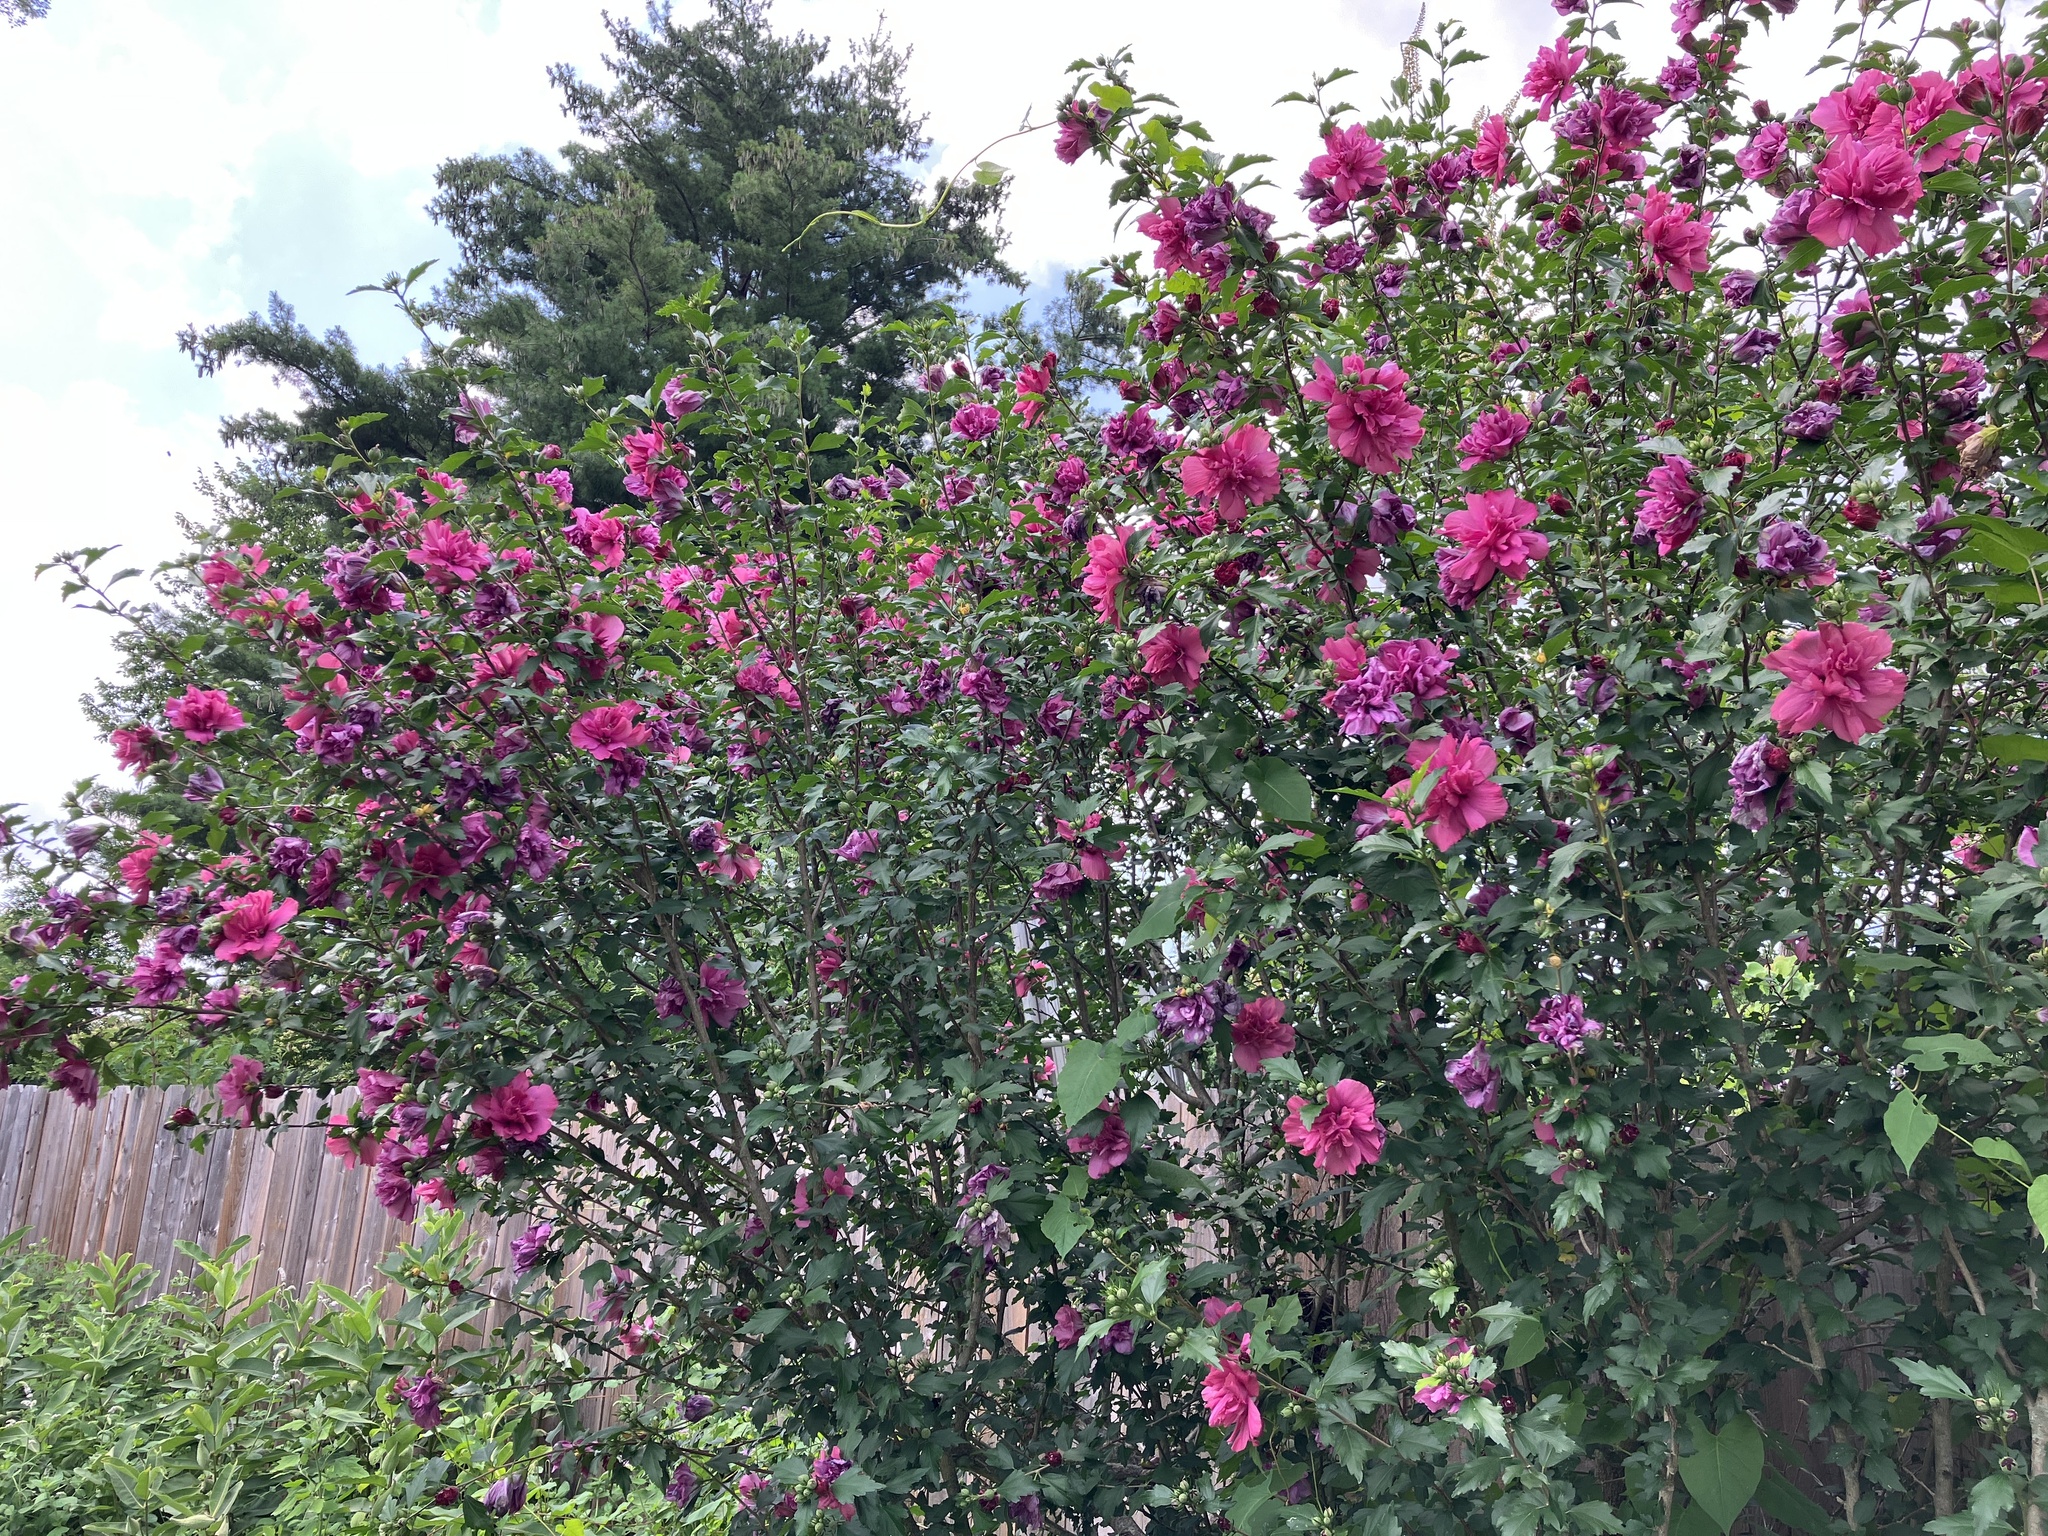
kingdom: Plantae
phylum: Tracheophyta
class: Magnoliopsida
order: Malvales
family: Malvaceae
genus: Hibiscus
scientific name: Hibiscus syriacus
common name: Syrian ketmia
